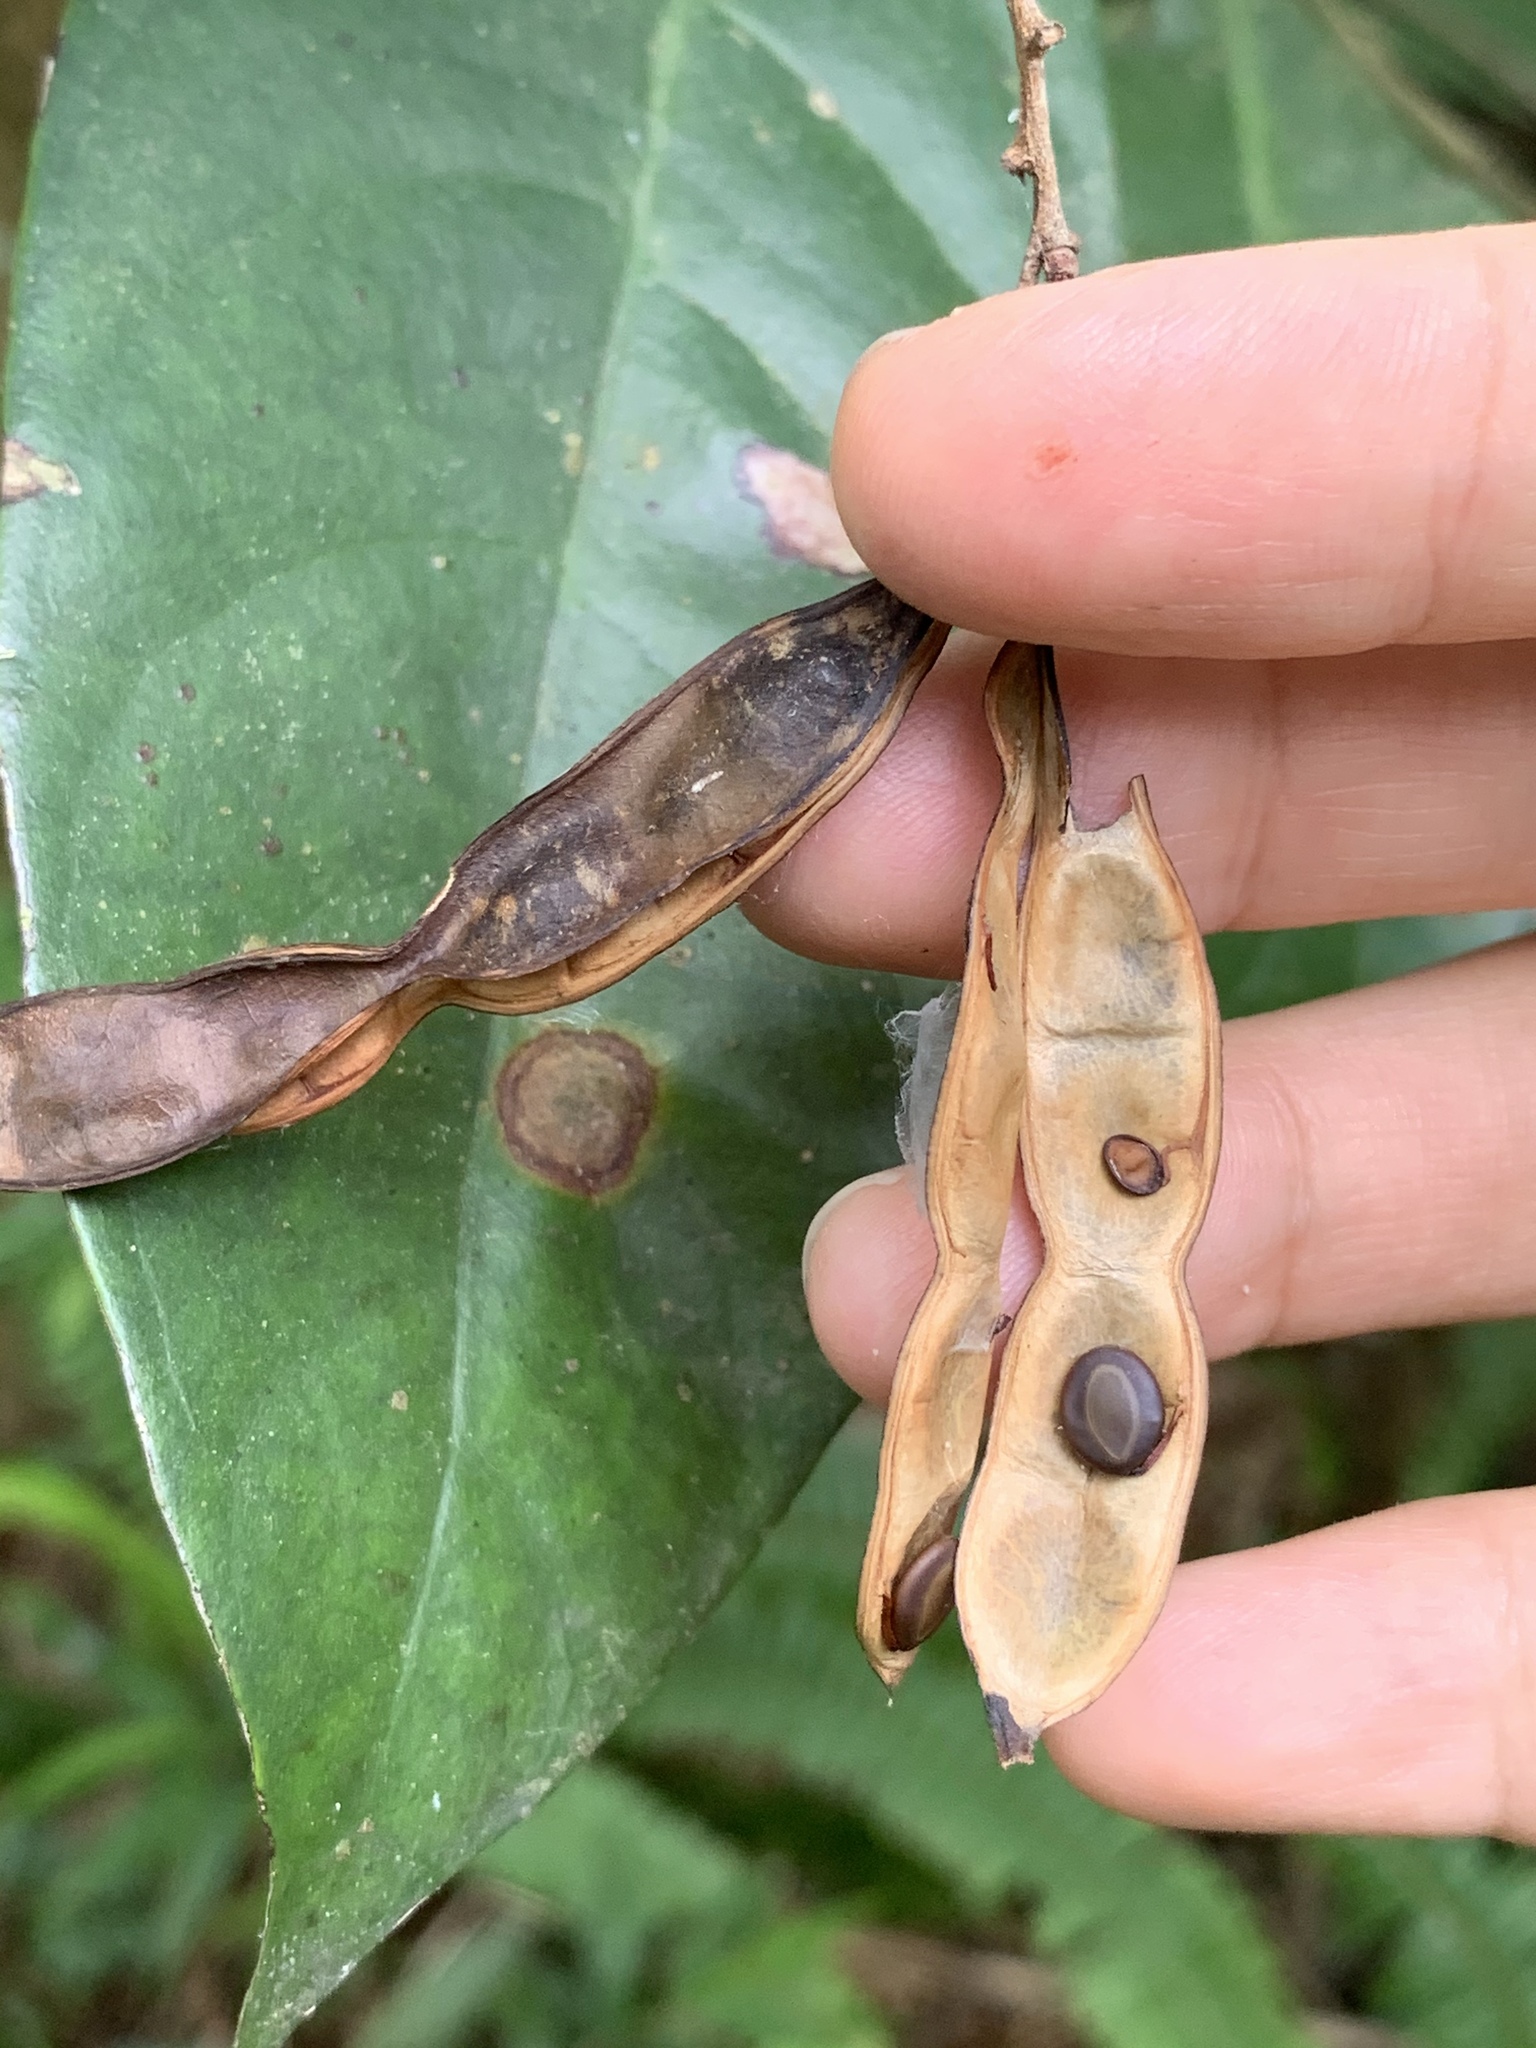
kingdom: Plantae
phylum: Tracheophyta
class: Magnoliopsida
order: Fabales
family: Fabaceae
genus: Acacia
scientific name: Acacia confusa
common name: Formosan koa
